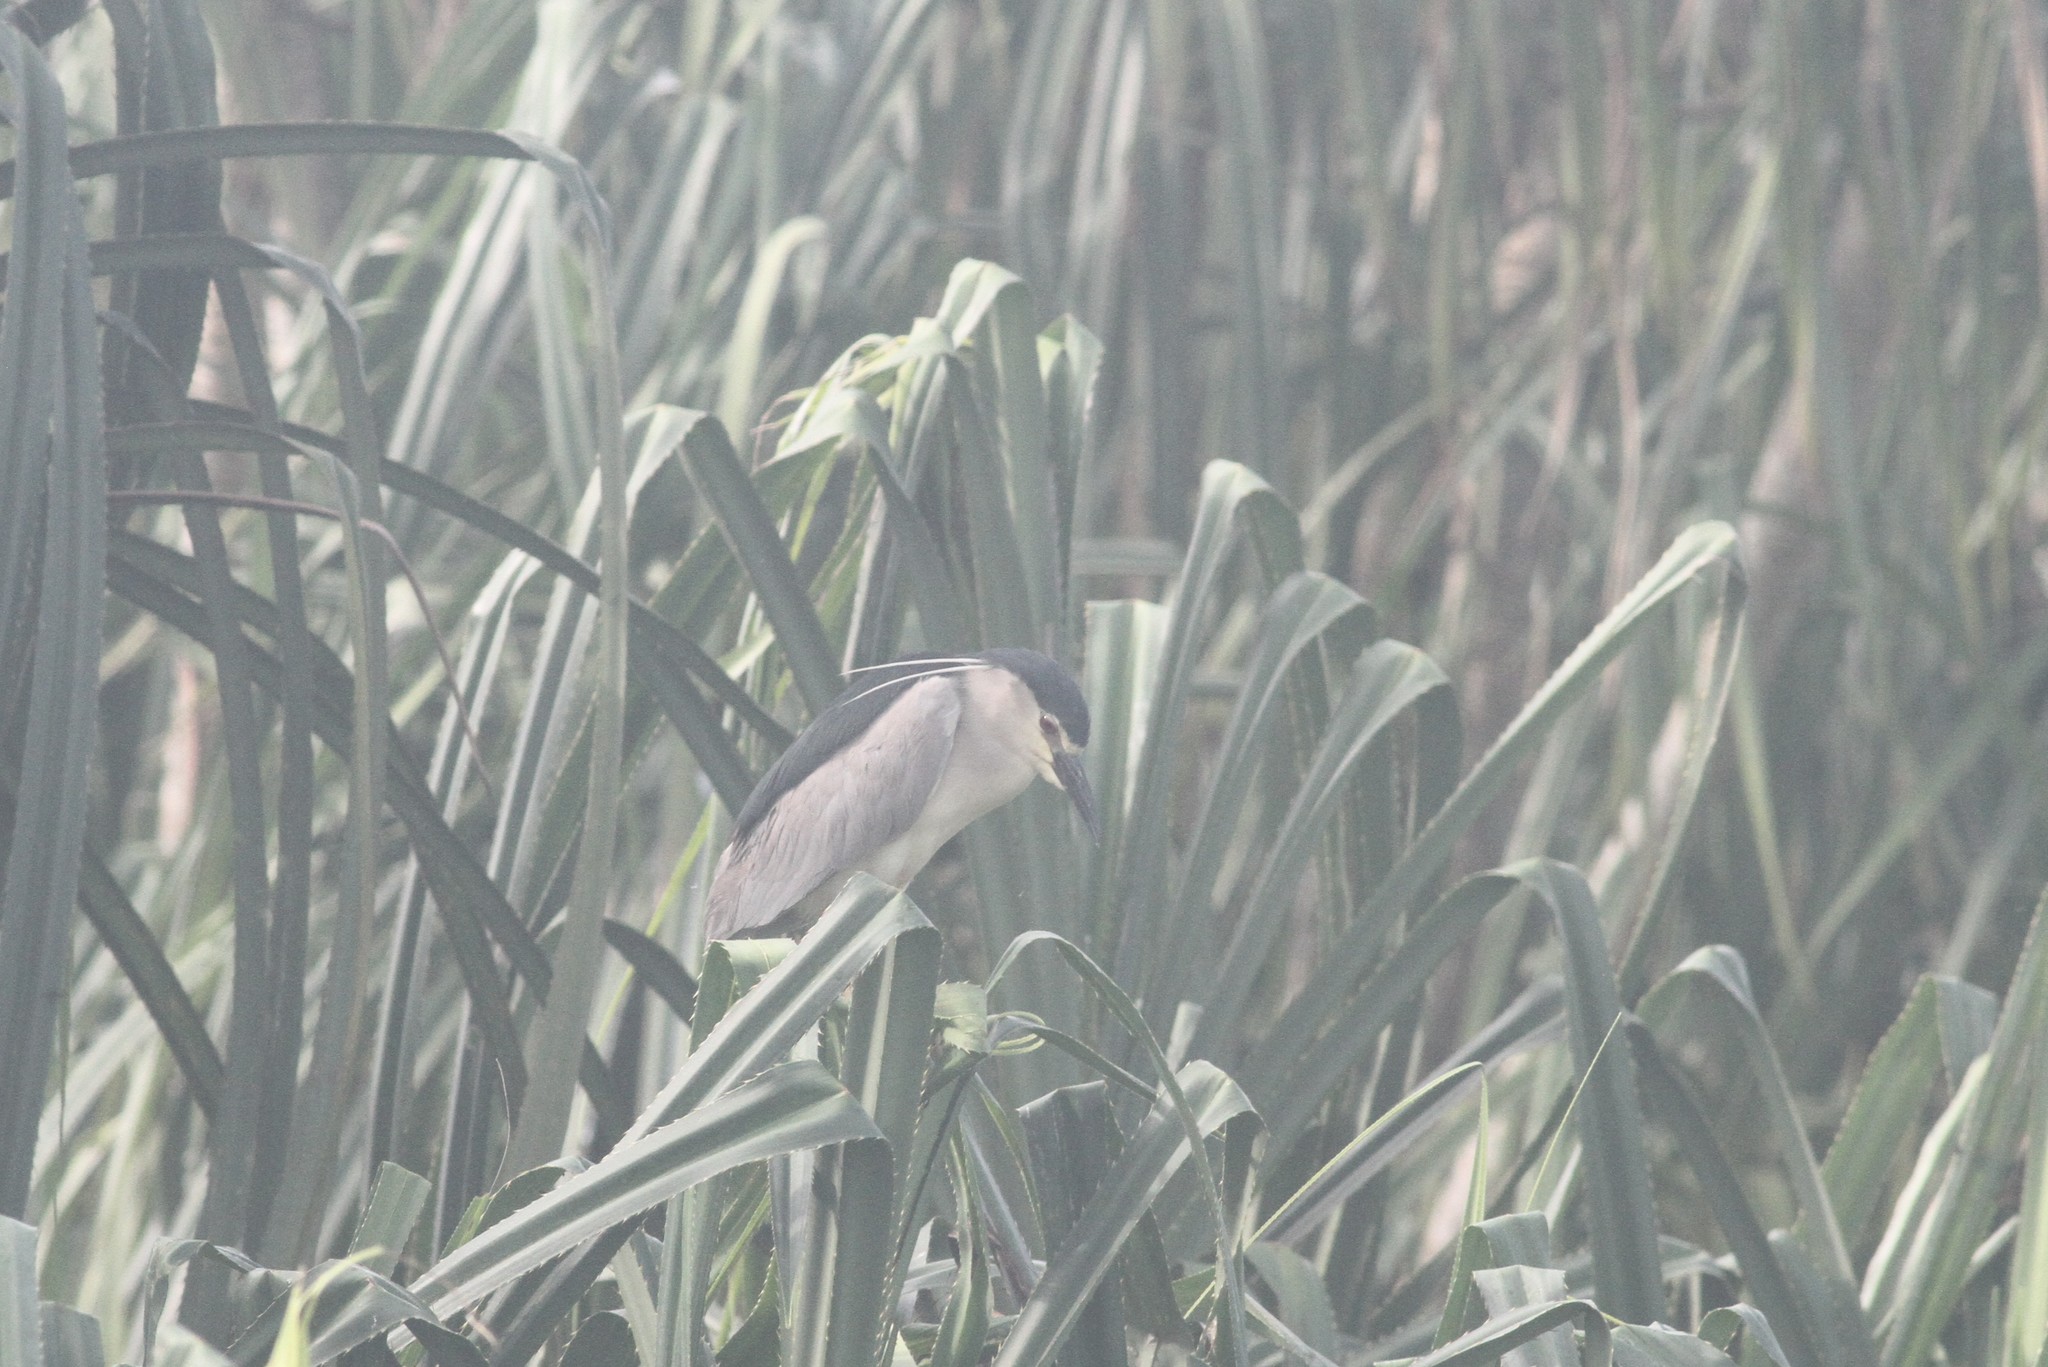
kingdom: Animalia
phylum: Chordata
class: Aves
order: Pelecaniformes
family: Ardeidae
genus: Nycticorax
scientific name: Nycticorax nycticorax
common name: Black-crowned night heron
